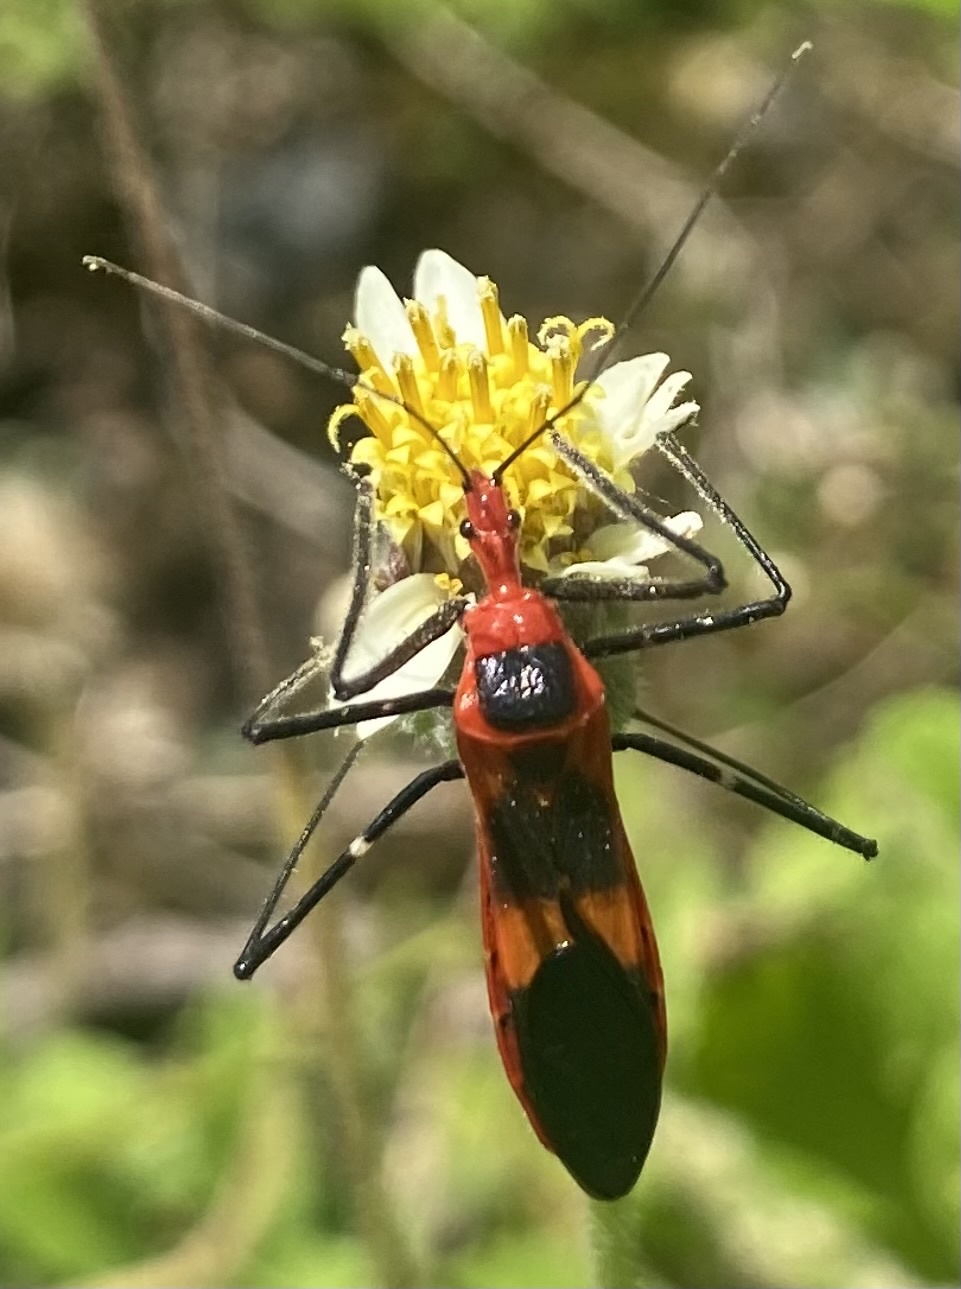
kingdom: Animalia
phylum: Arthropoda
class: Insecta
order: Hemiptera
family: Reduviidae
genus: Zelus
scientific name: Zelus longipes
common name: Milkweed assassin bug
